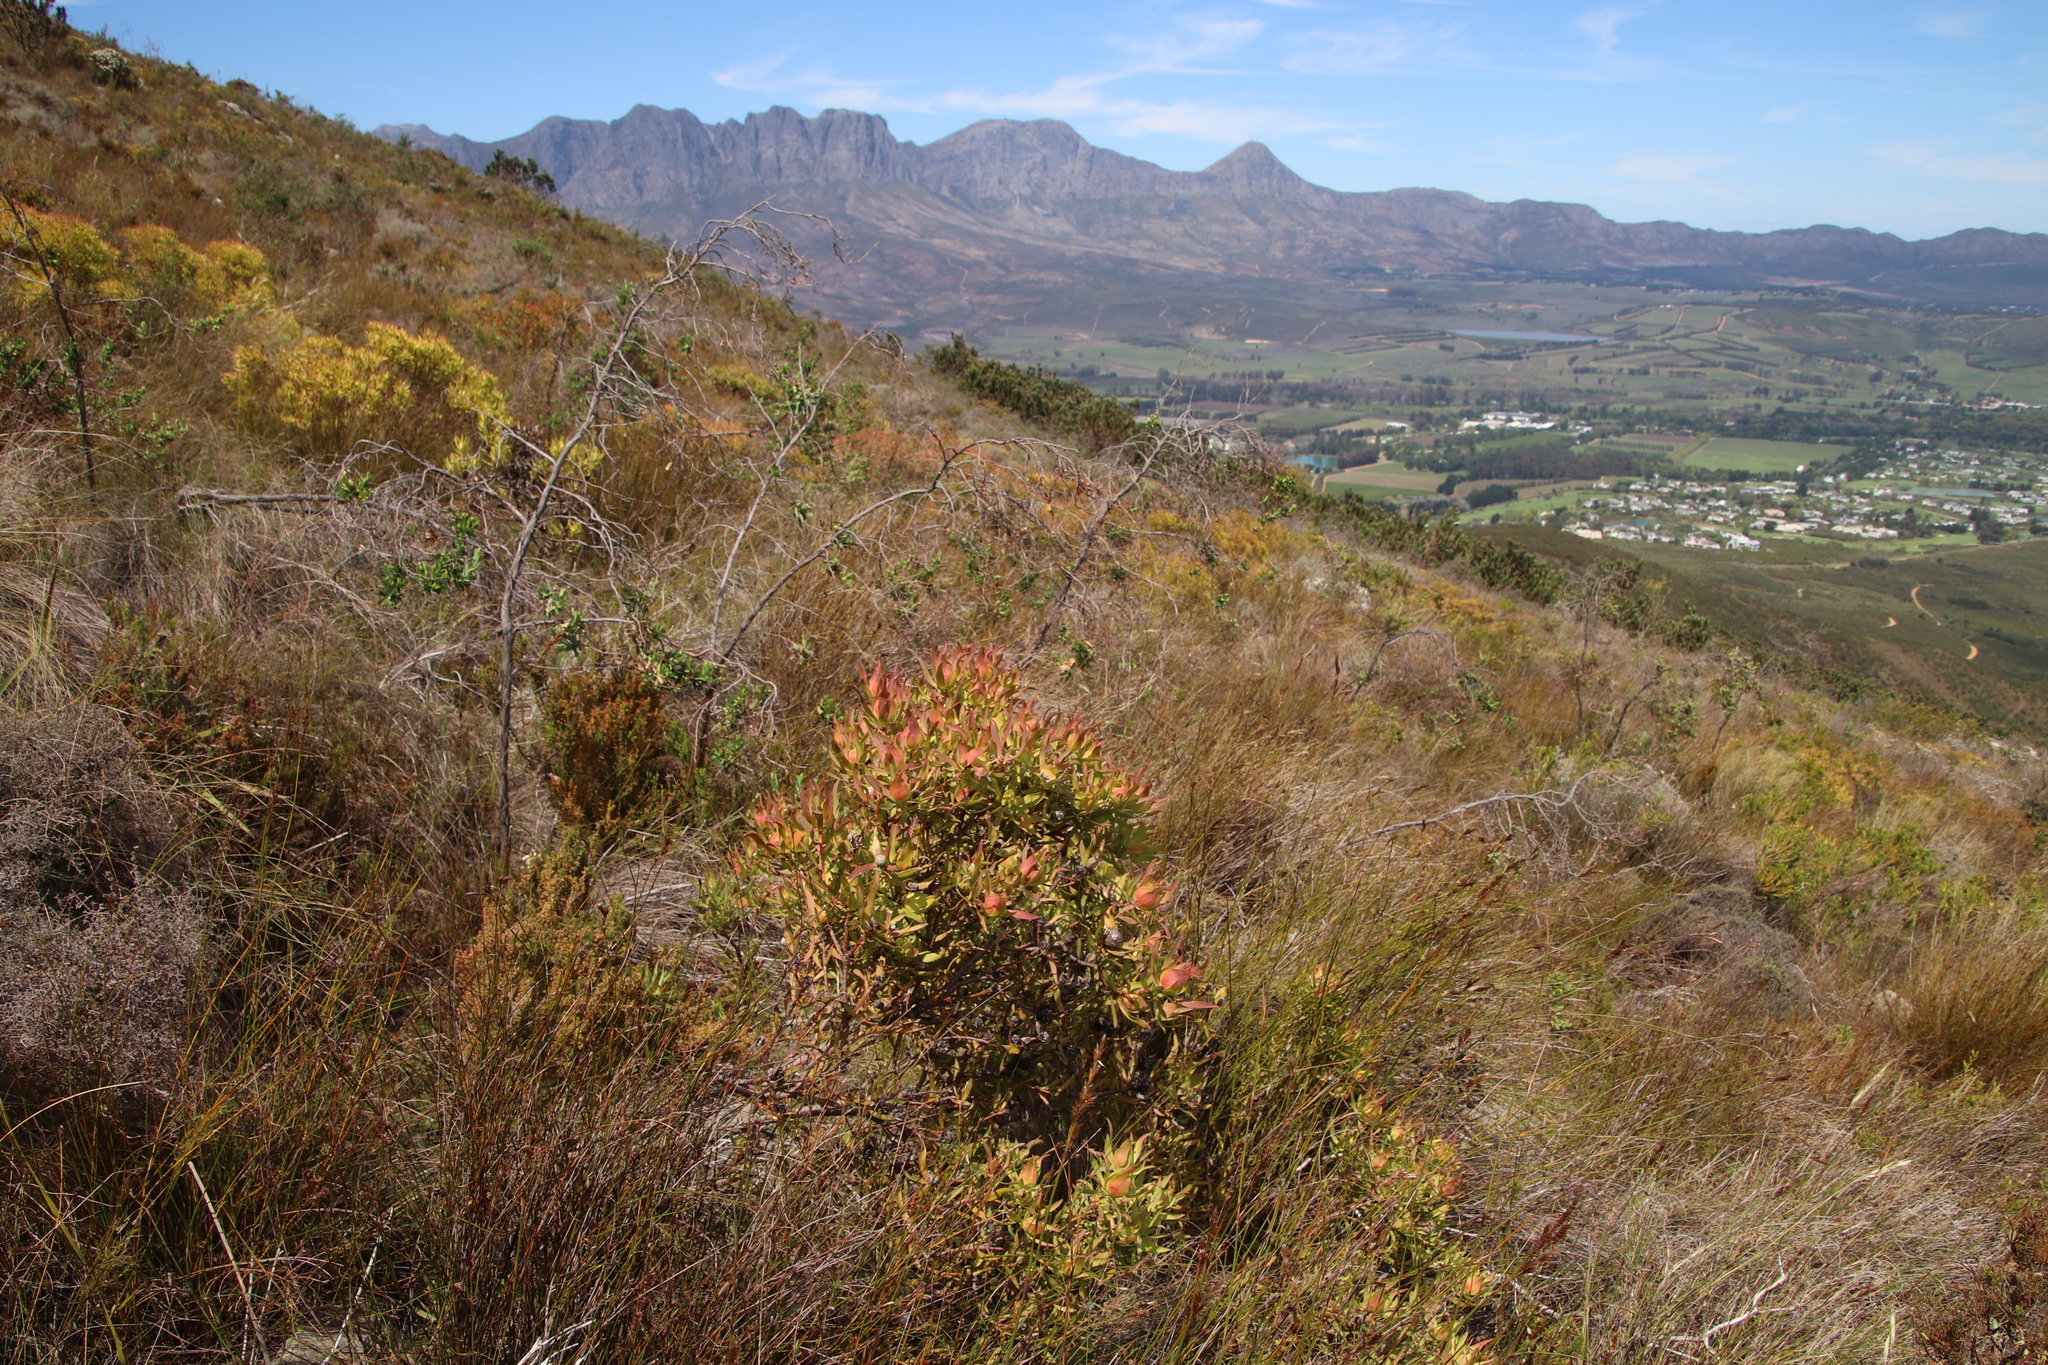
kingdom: Plantae
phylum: Tracheophyta
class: Magnoliopsida
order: Proteales
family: Proteaceae
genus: Leucadendron
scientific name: Leucadendron salignum
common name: Common sunshine conebush
